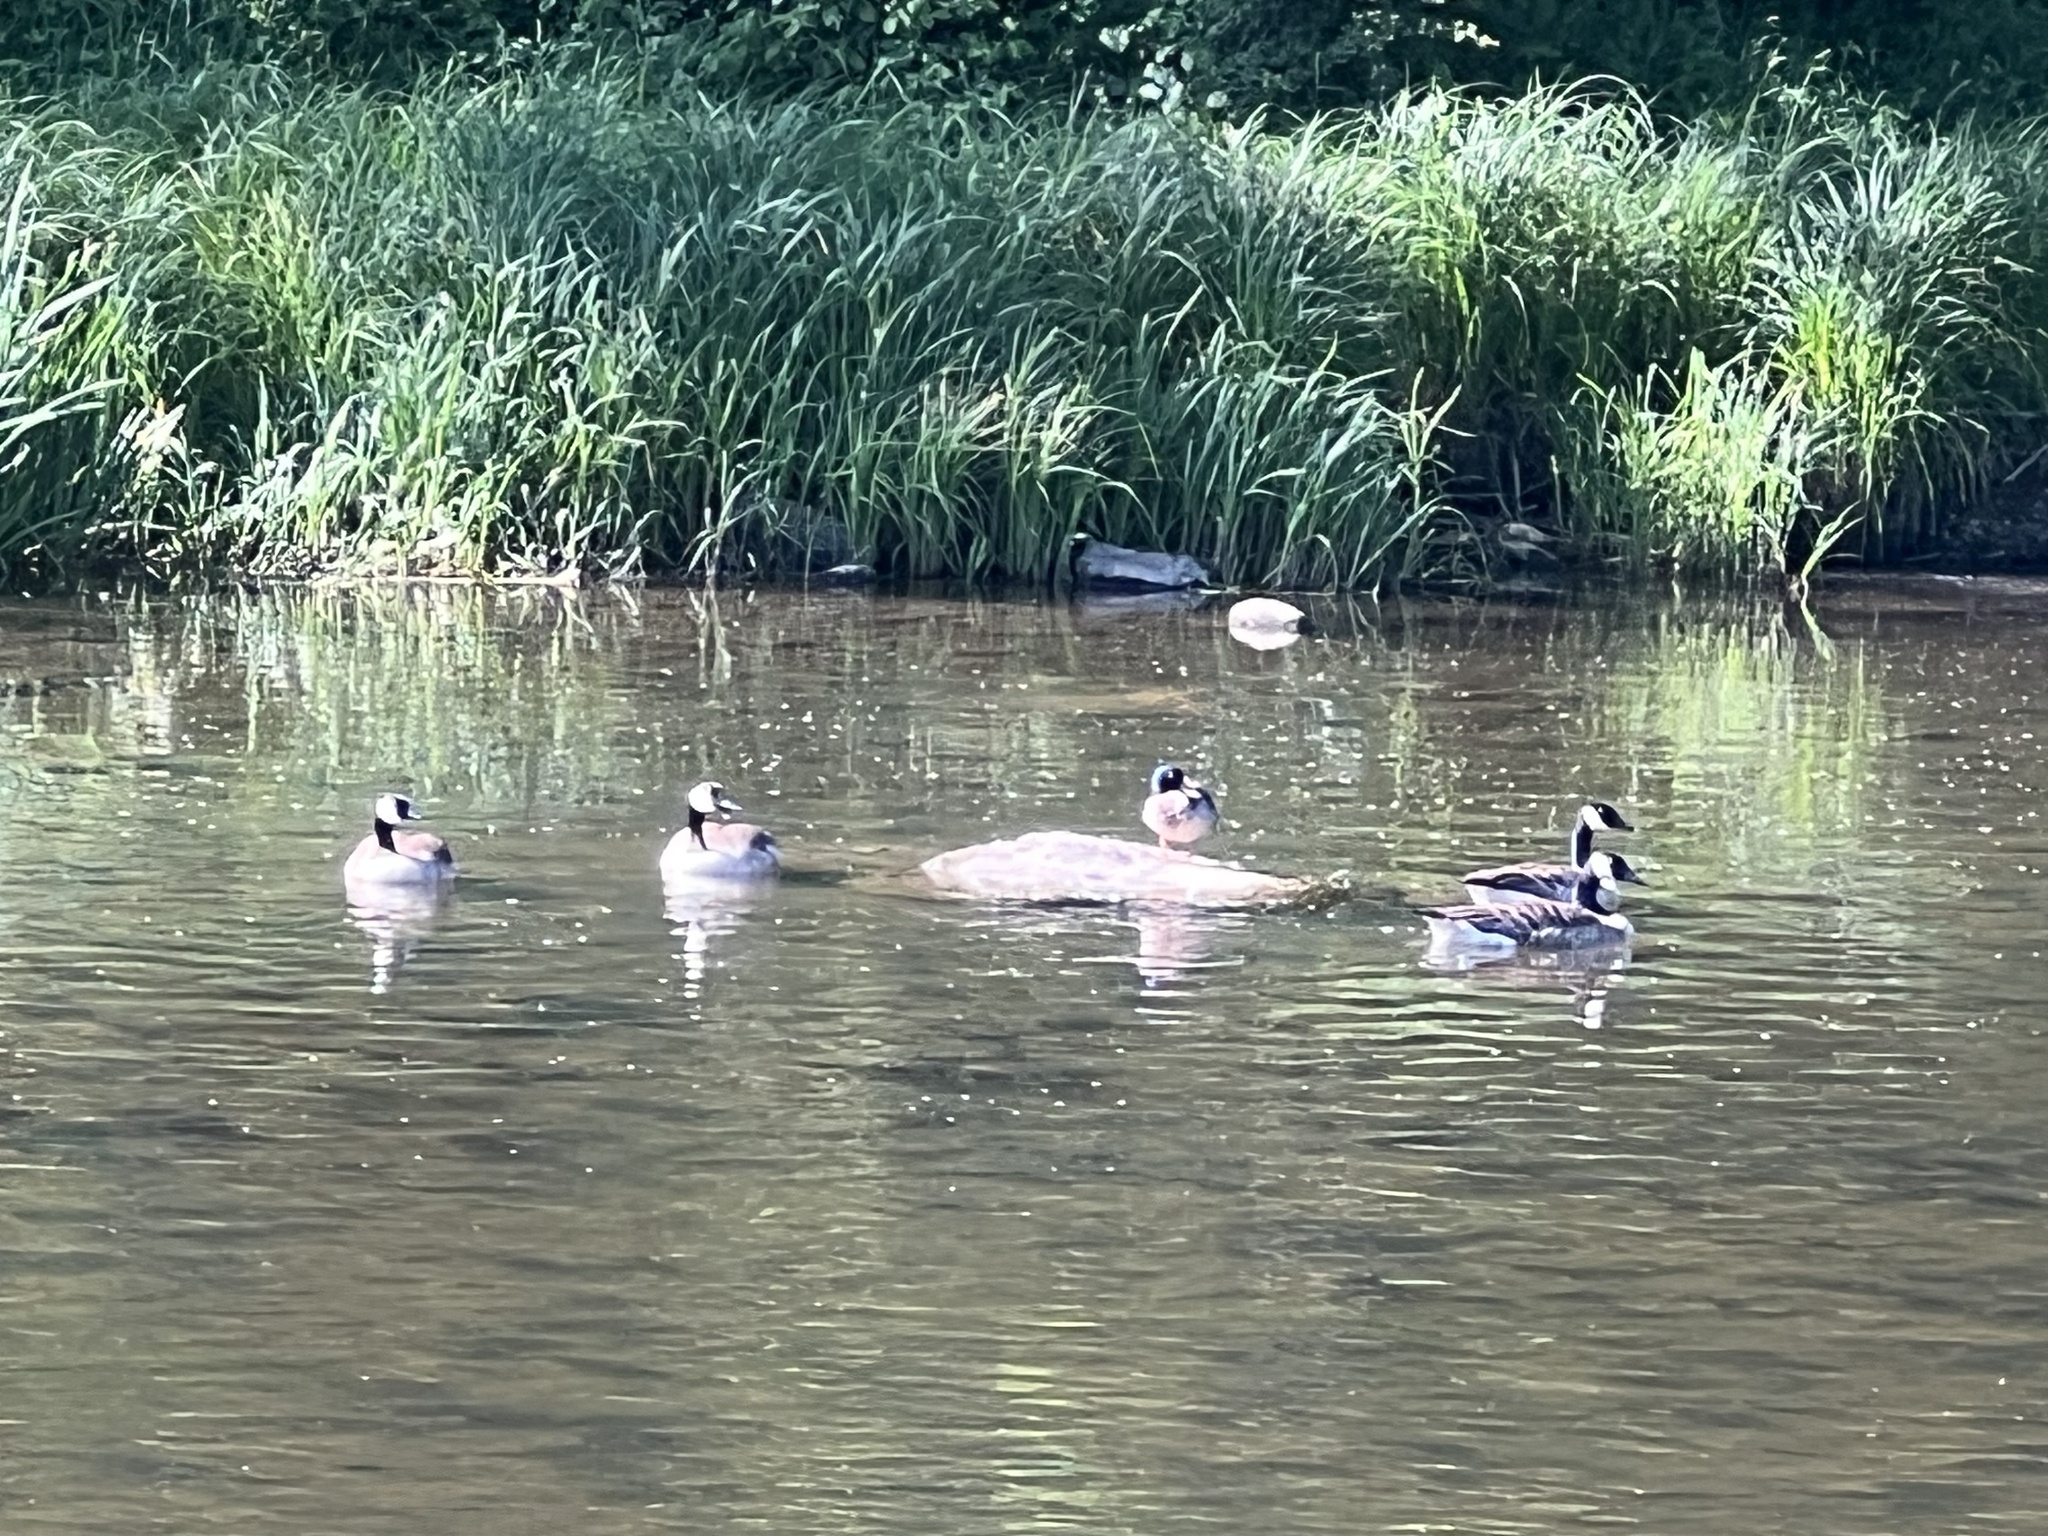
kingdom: Animalia
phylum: Chordata
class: Aves
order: Anseriformes
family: Anatidae
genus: Branta
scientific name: Branta canadensis
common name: Canada goose
